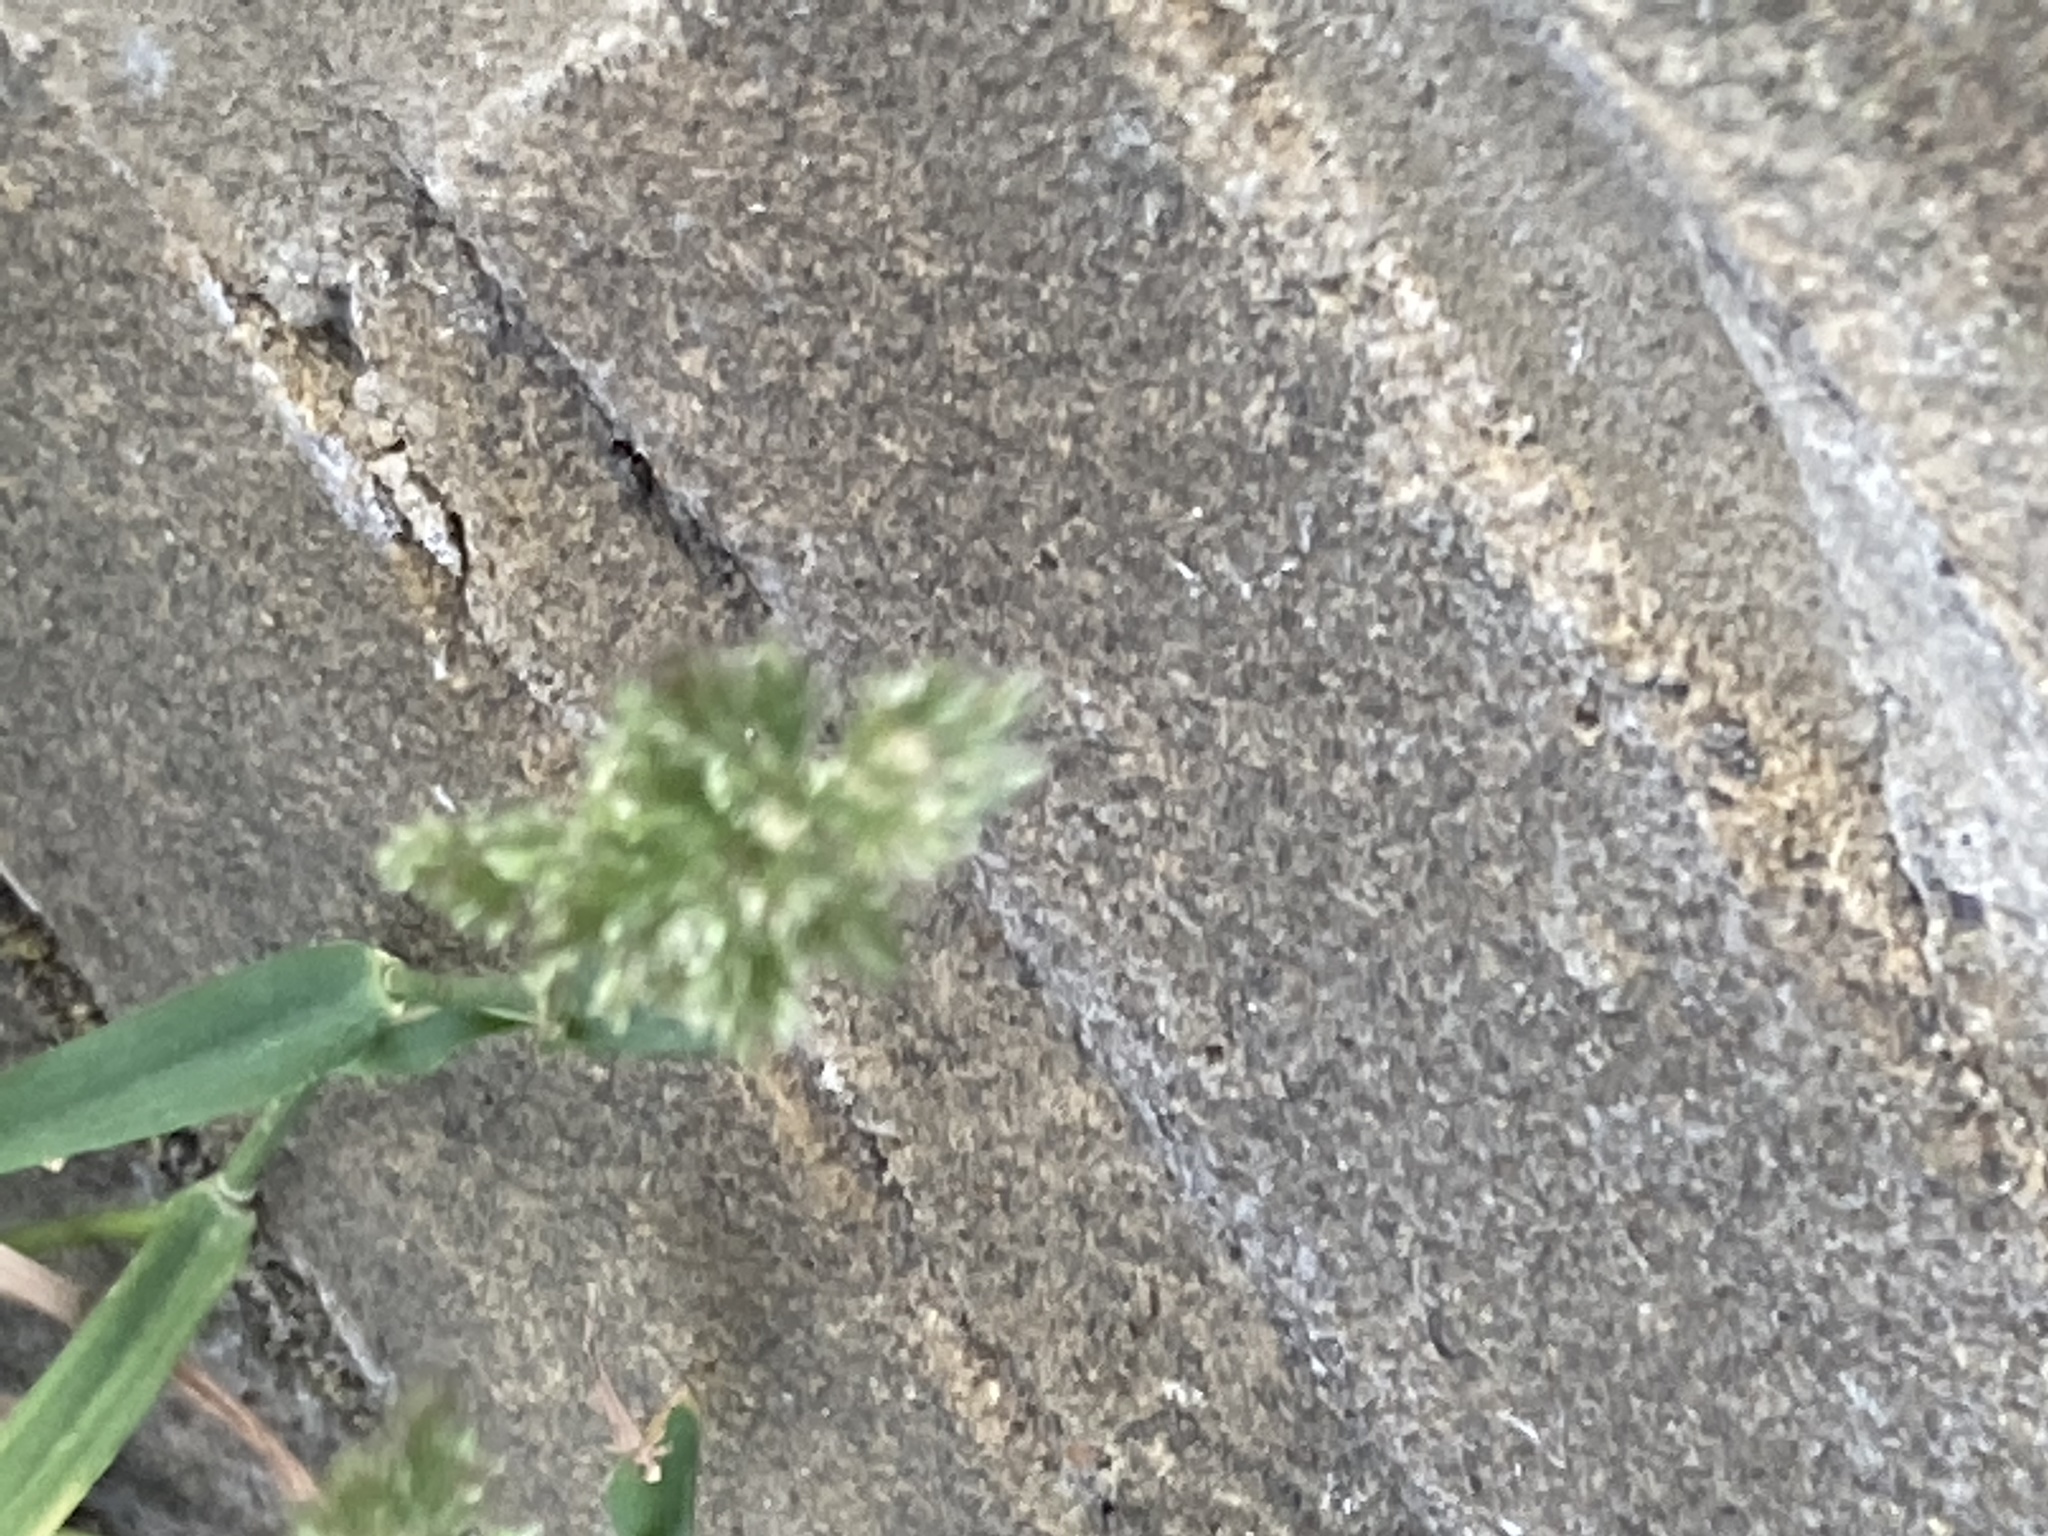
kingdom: Plantae
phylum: Tracheophyta
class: Liliopsida
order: Poales
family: Poaceae
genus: Polypogon
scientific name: Polypogon viridis
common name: Water bent
